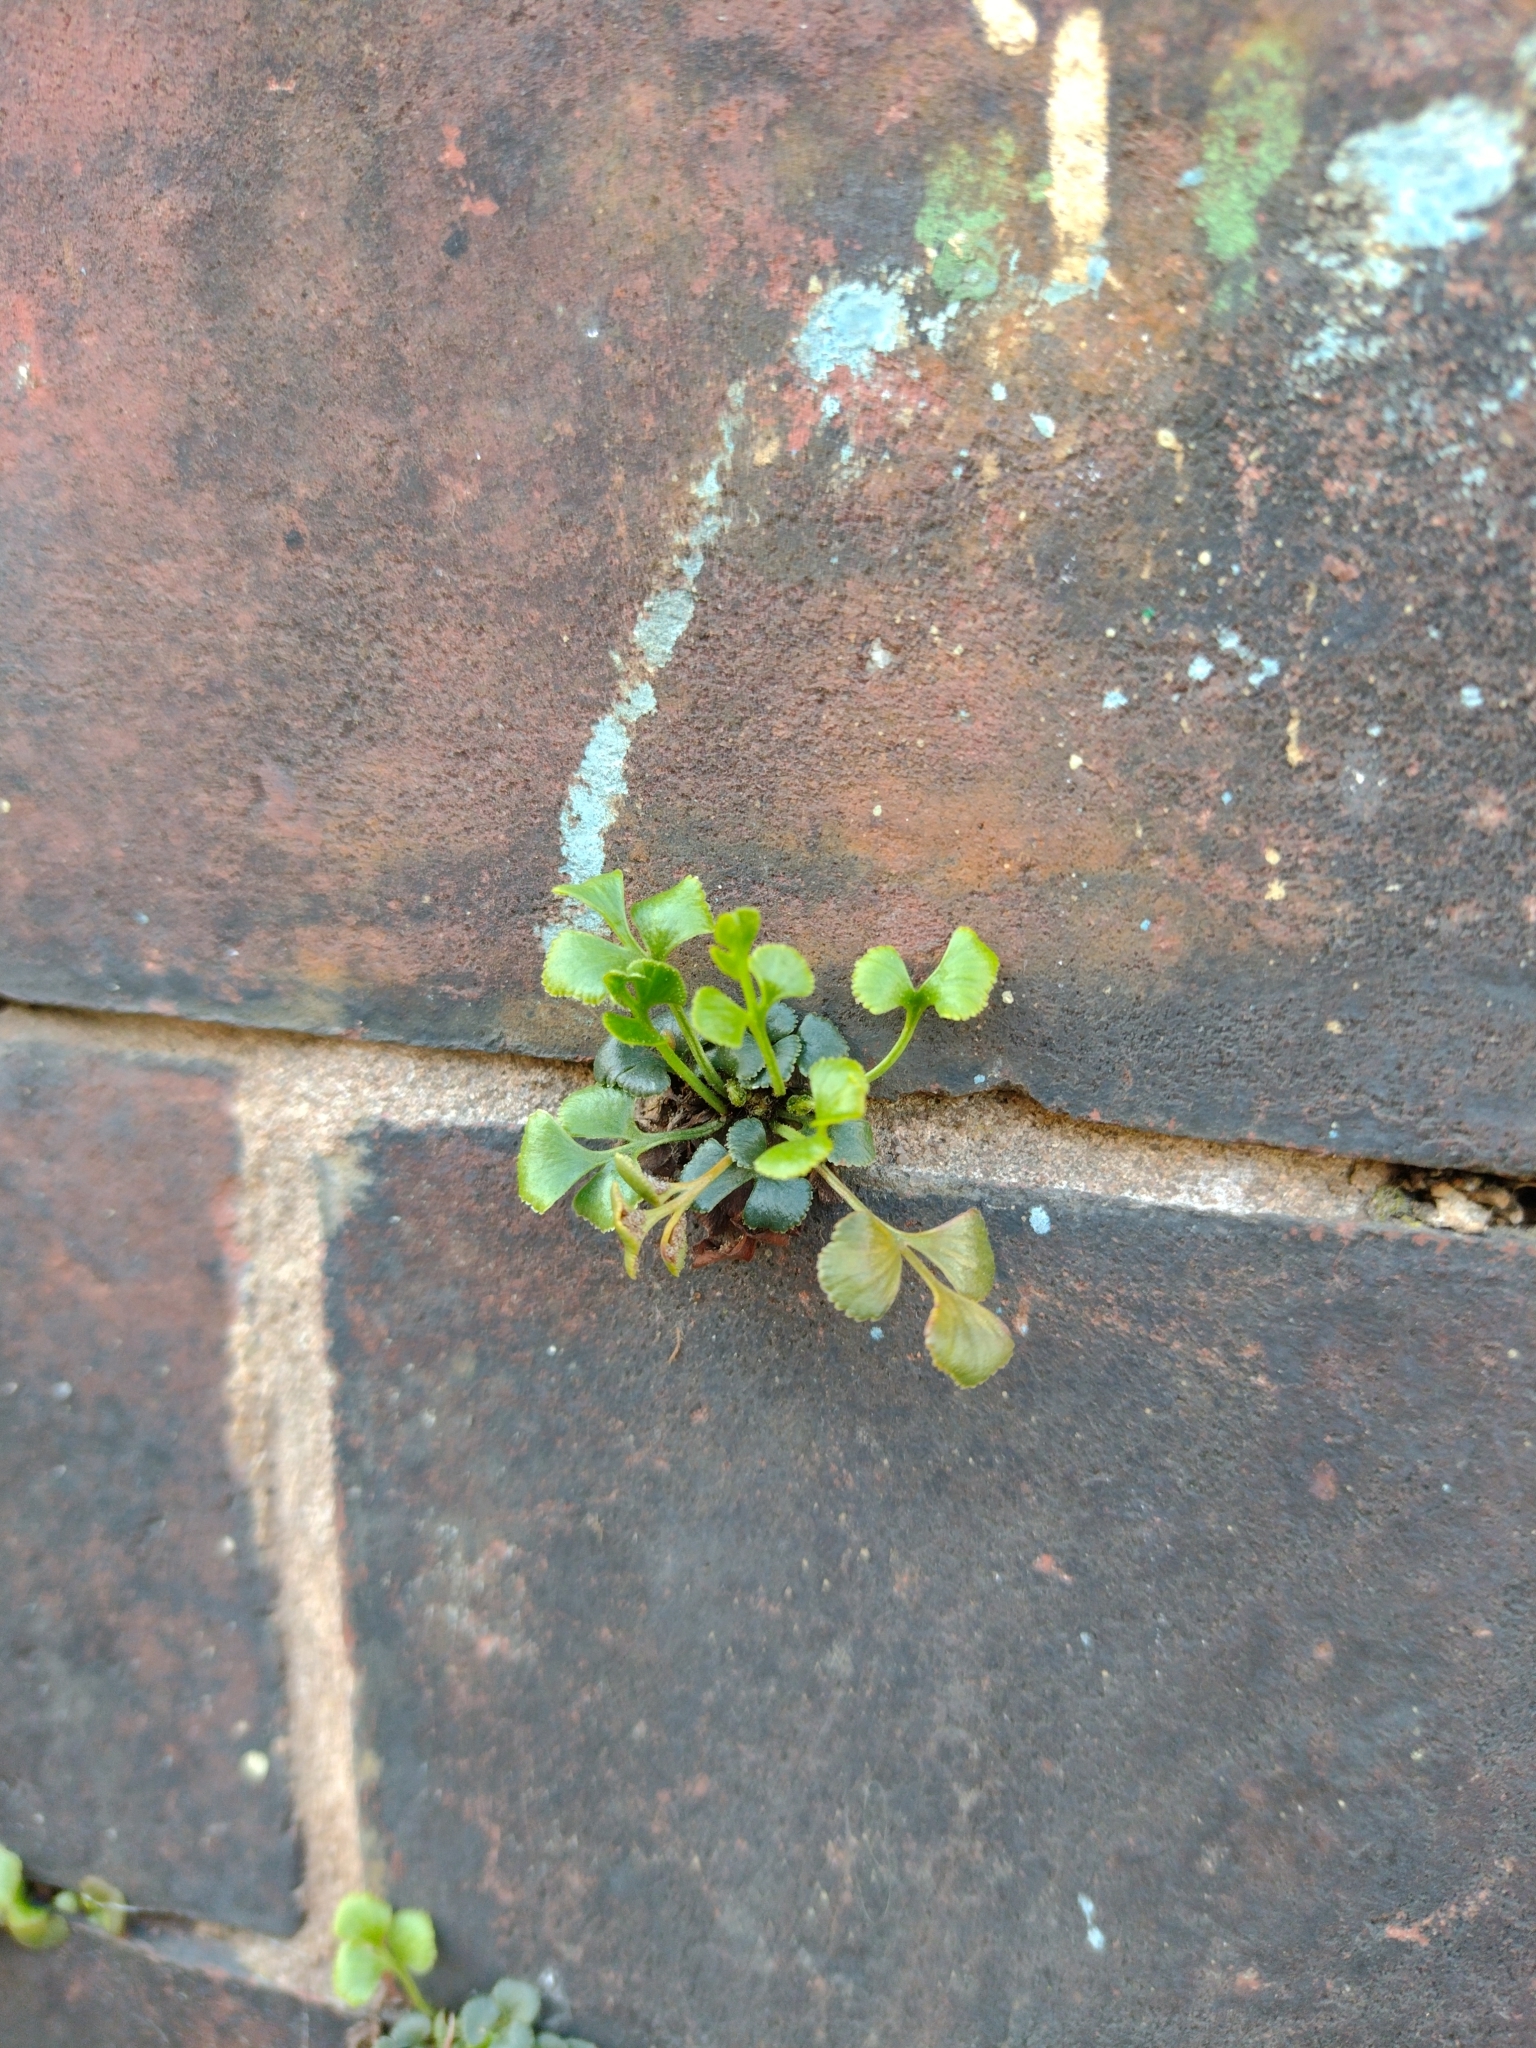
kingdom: Plantae
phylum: Tracheophyta
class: Polypodiopsida
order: Polypodiales
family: Aspleniaceae
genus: Asplenium
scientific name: Asplenium ruta-muraria
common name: Wall-rue
